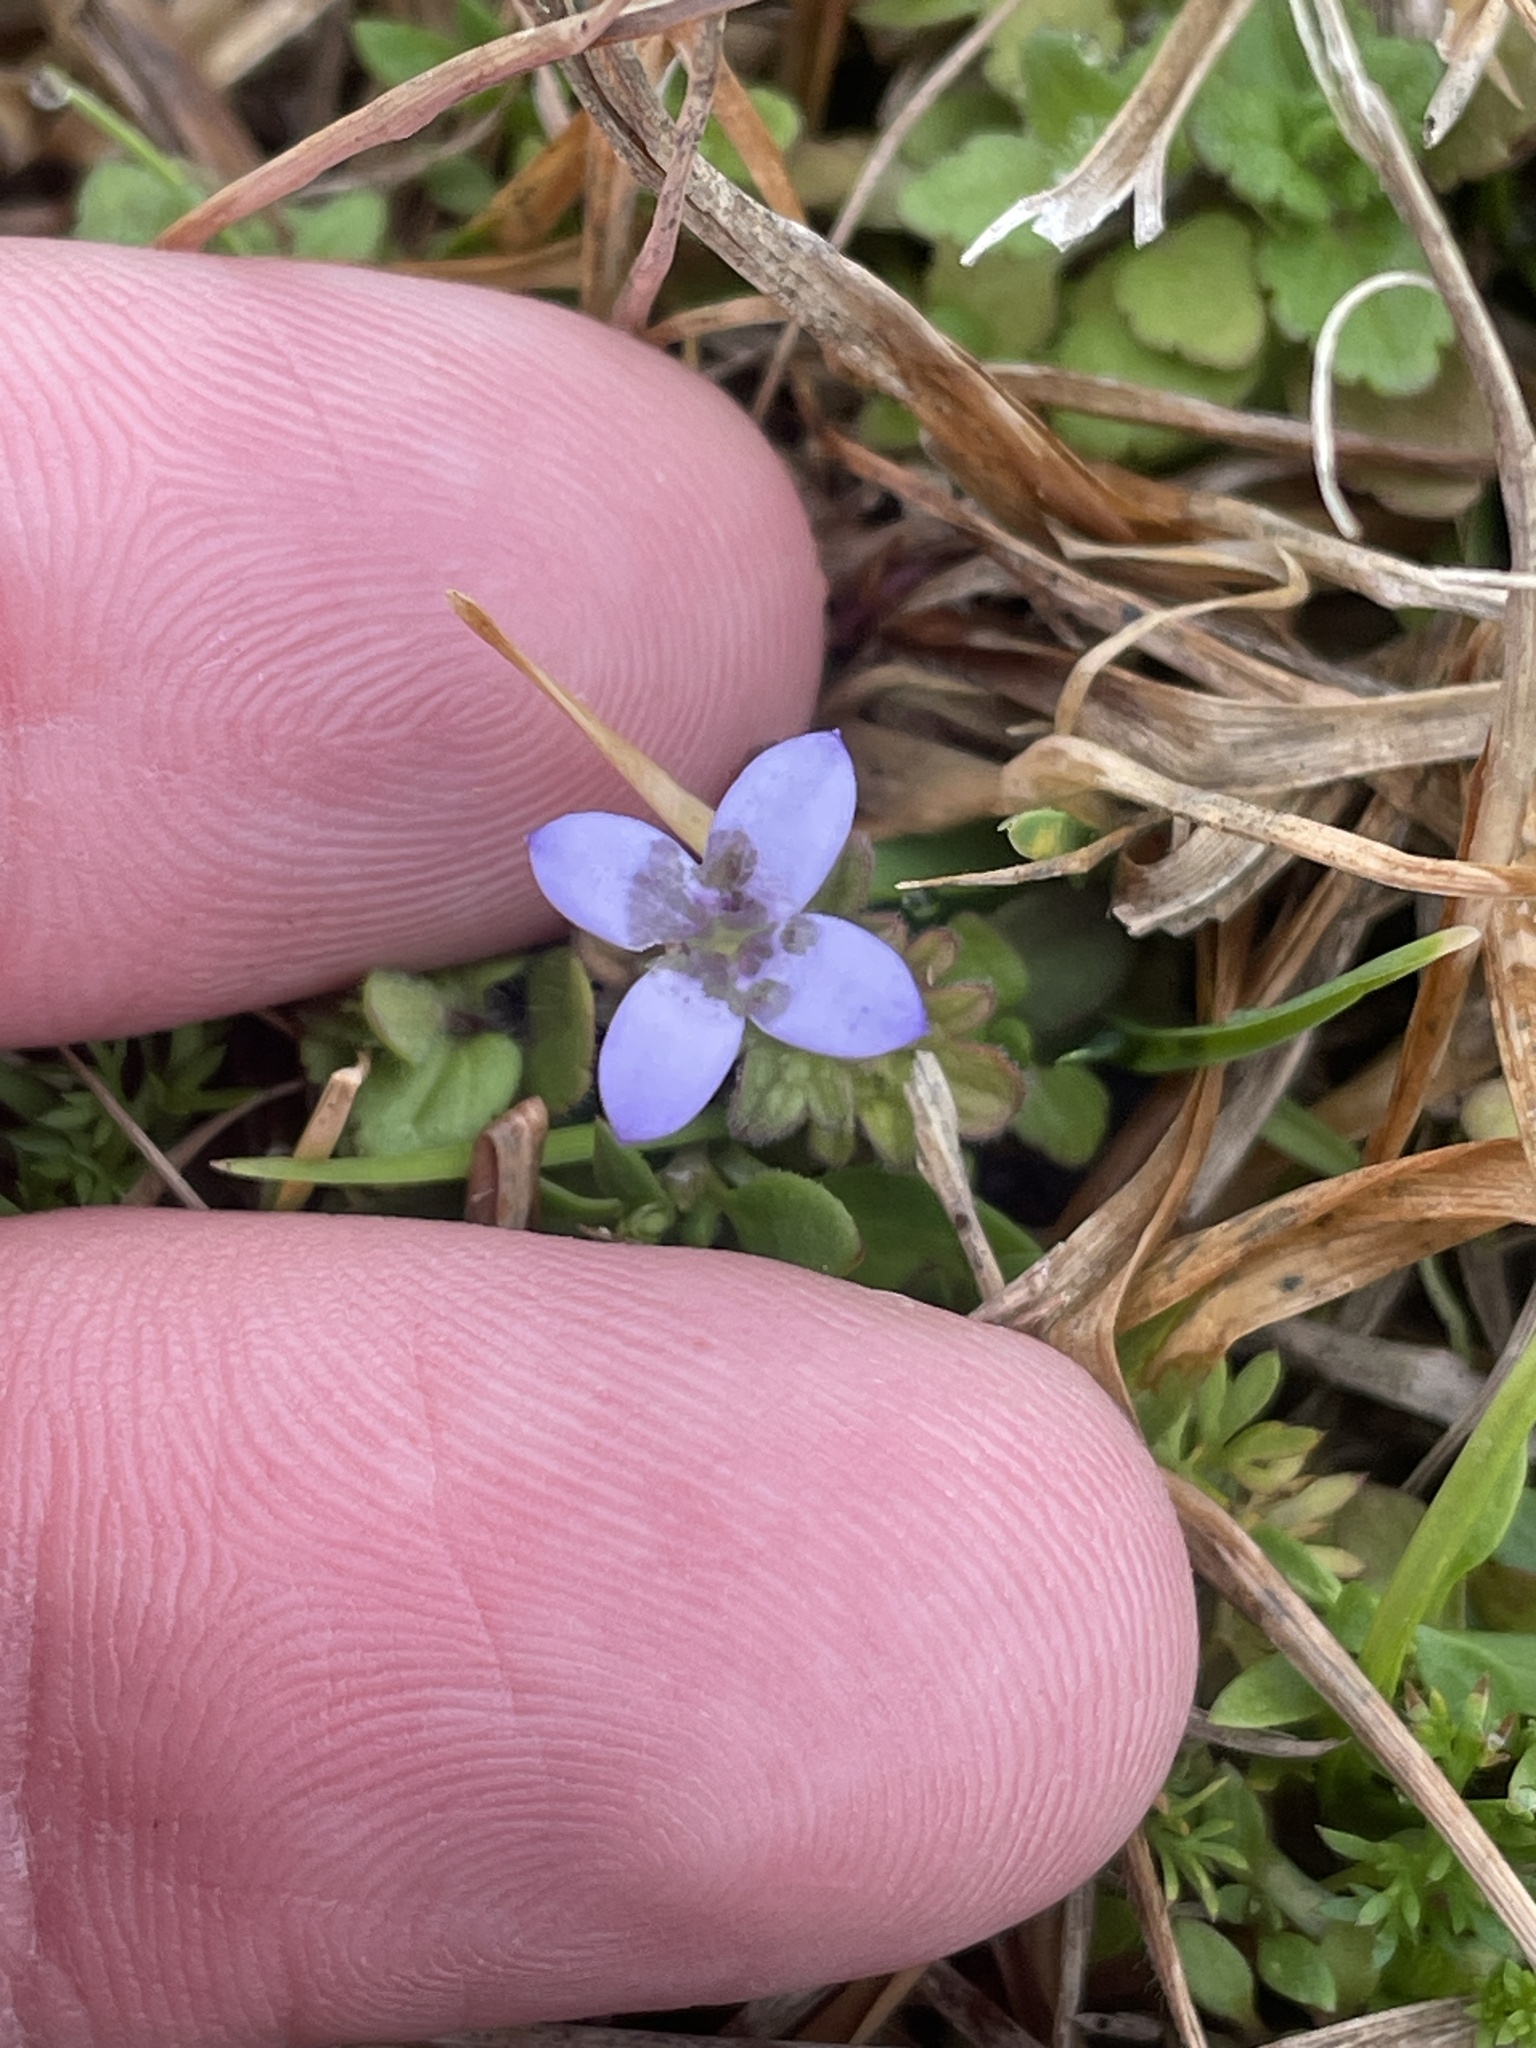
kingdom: Plantae
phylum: Tracheophyta
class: Magnoliopsida
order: Gentianales
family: Rubiaceae
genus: Houstonia
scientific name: Houstonia pusilla
